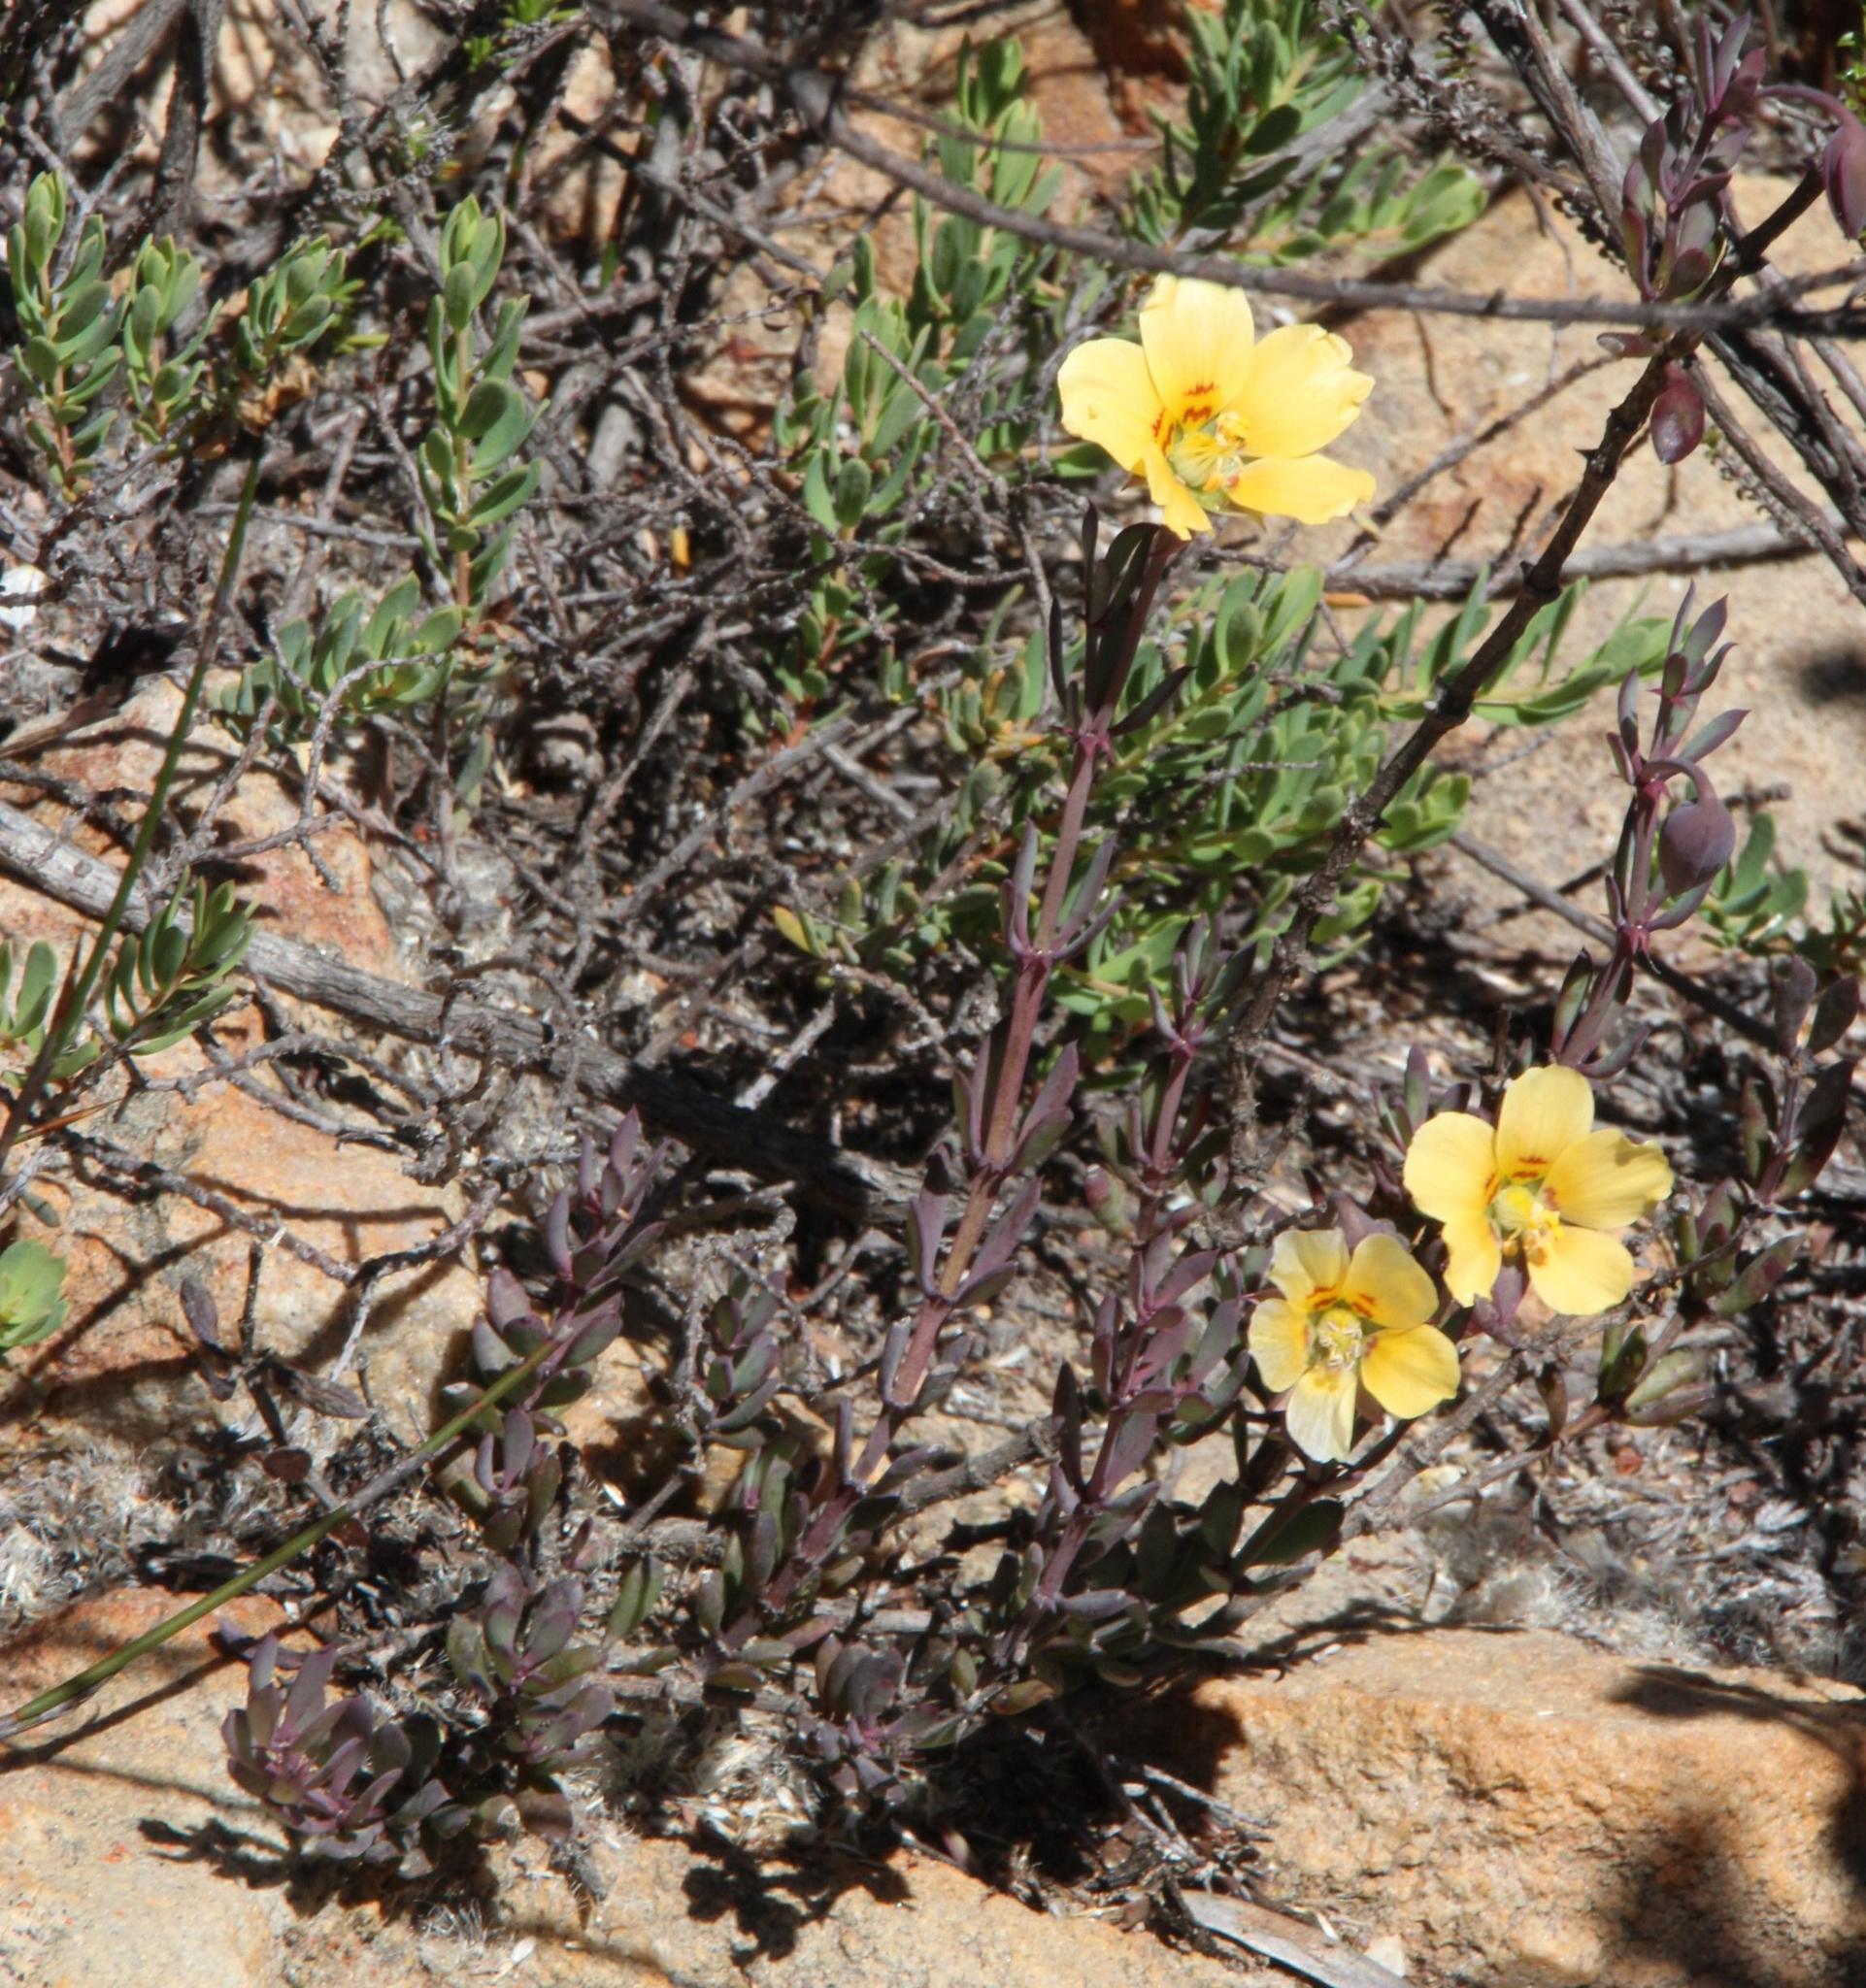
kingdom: Plantae
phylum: Tracheophyta
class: Magnoliopsida
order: Zygophyllales
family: Zygophyllaceae
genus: Roepera
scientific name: Roepera fulva
